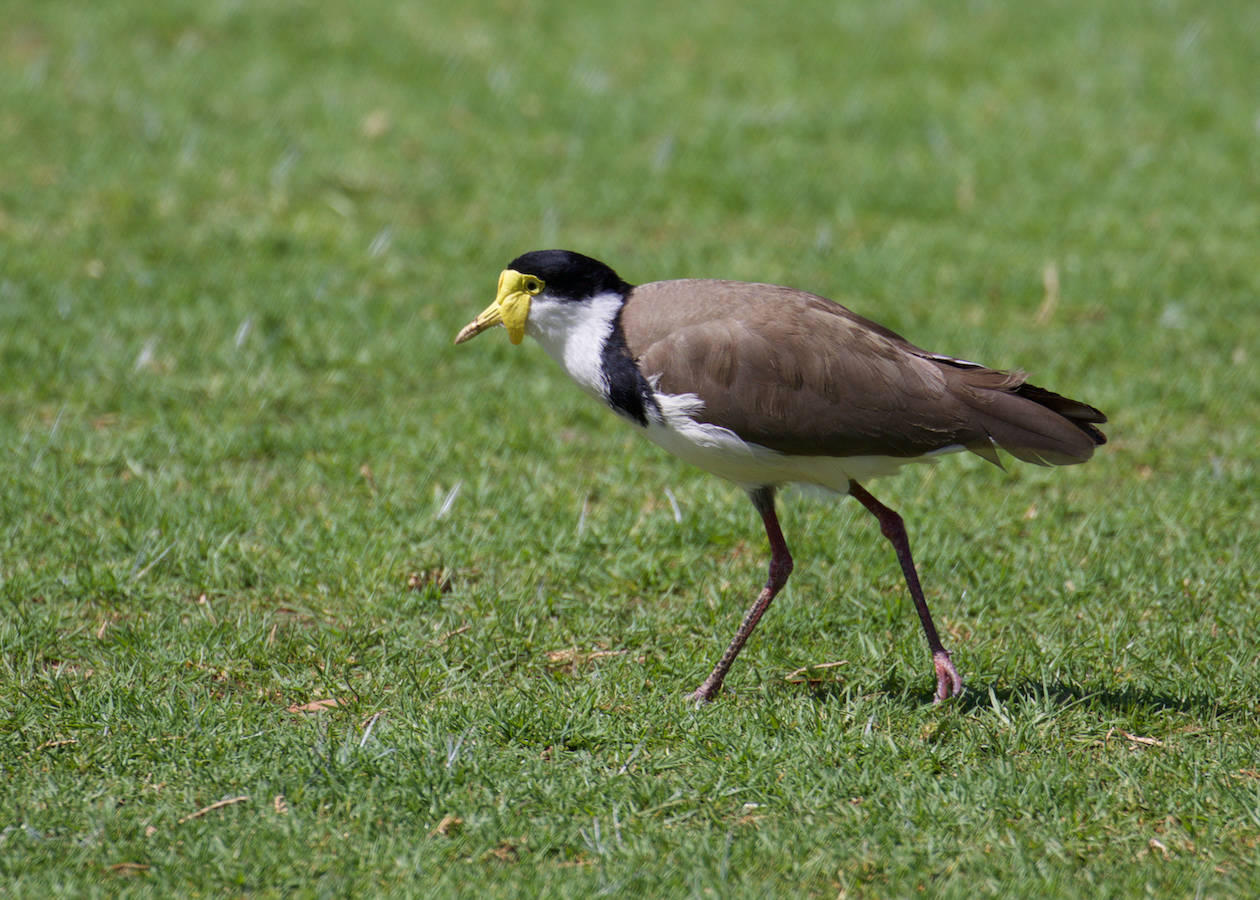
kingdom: Animalia
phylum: Chordata
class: Aves
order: Charadriiformes
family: Charadriidae
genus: Vanellus
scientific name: Vanellus miles
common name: Masked lapwing
